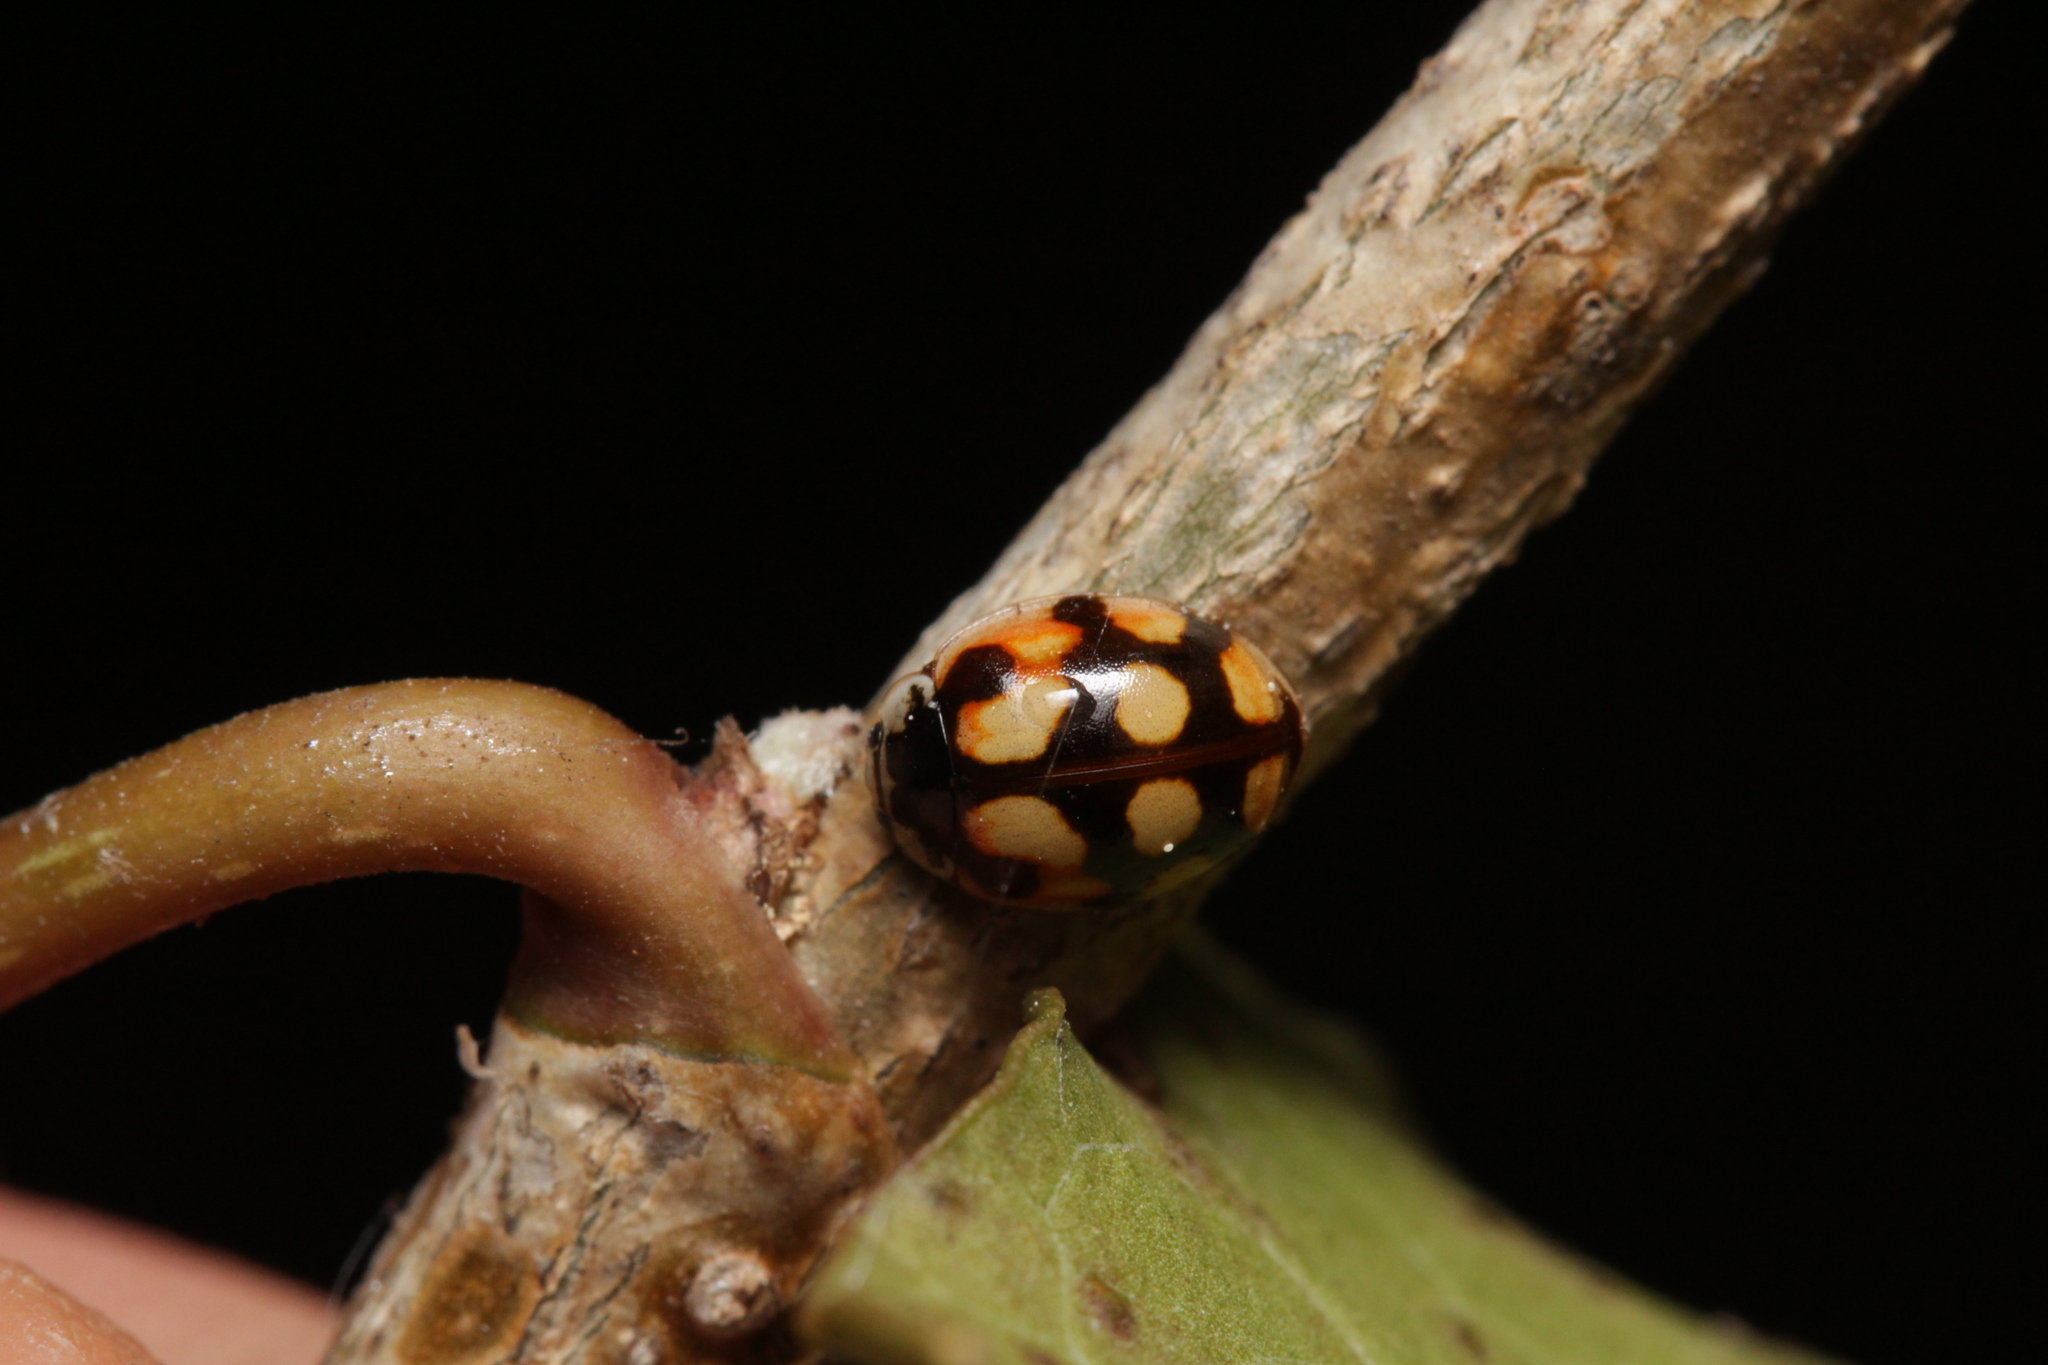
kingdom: Animalia
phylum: Arthropoda
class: Insecta
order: Coleoptera
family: Coccinellidae
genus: Adalia
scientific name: Adalia decempunctata
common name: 10-spot ladybird
